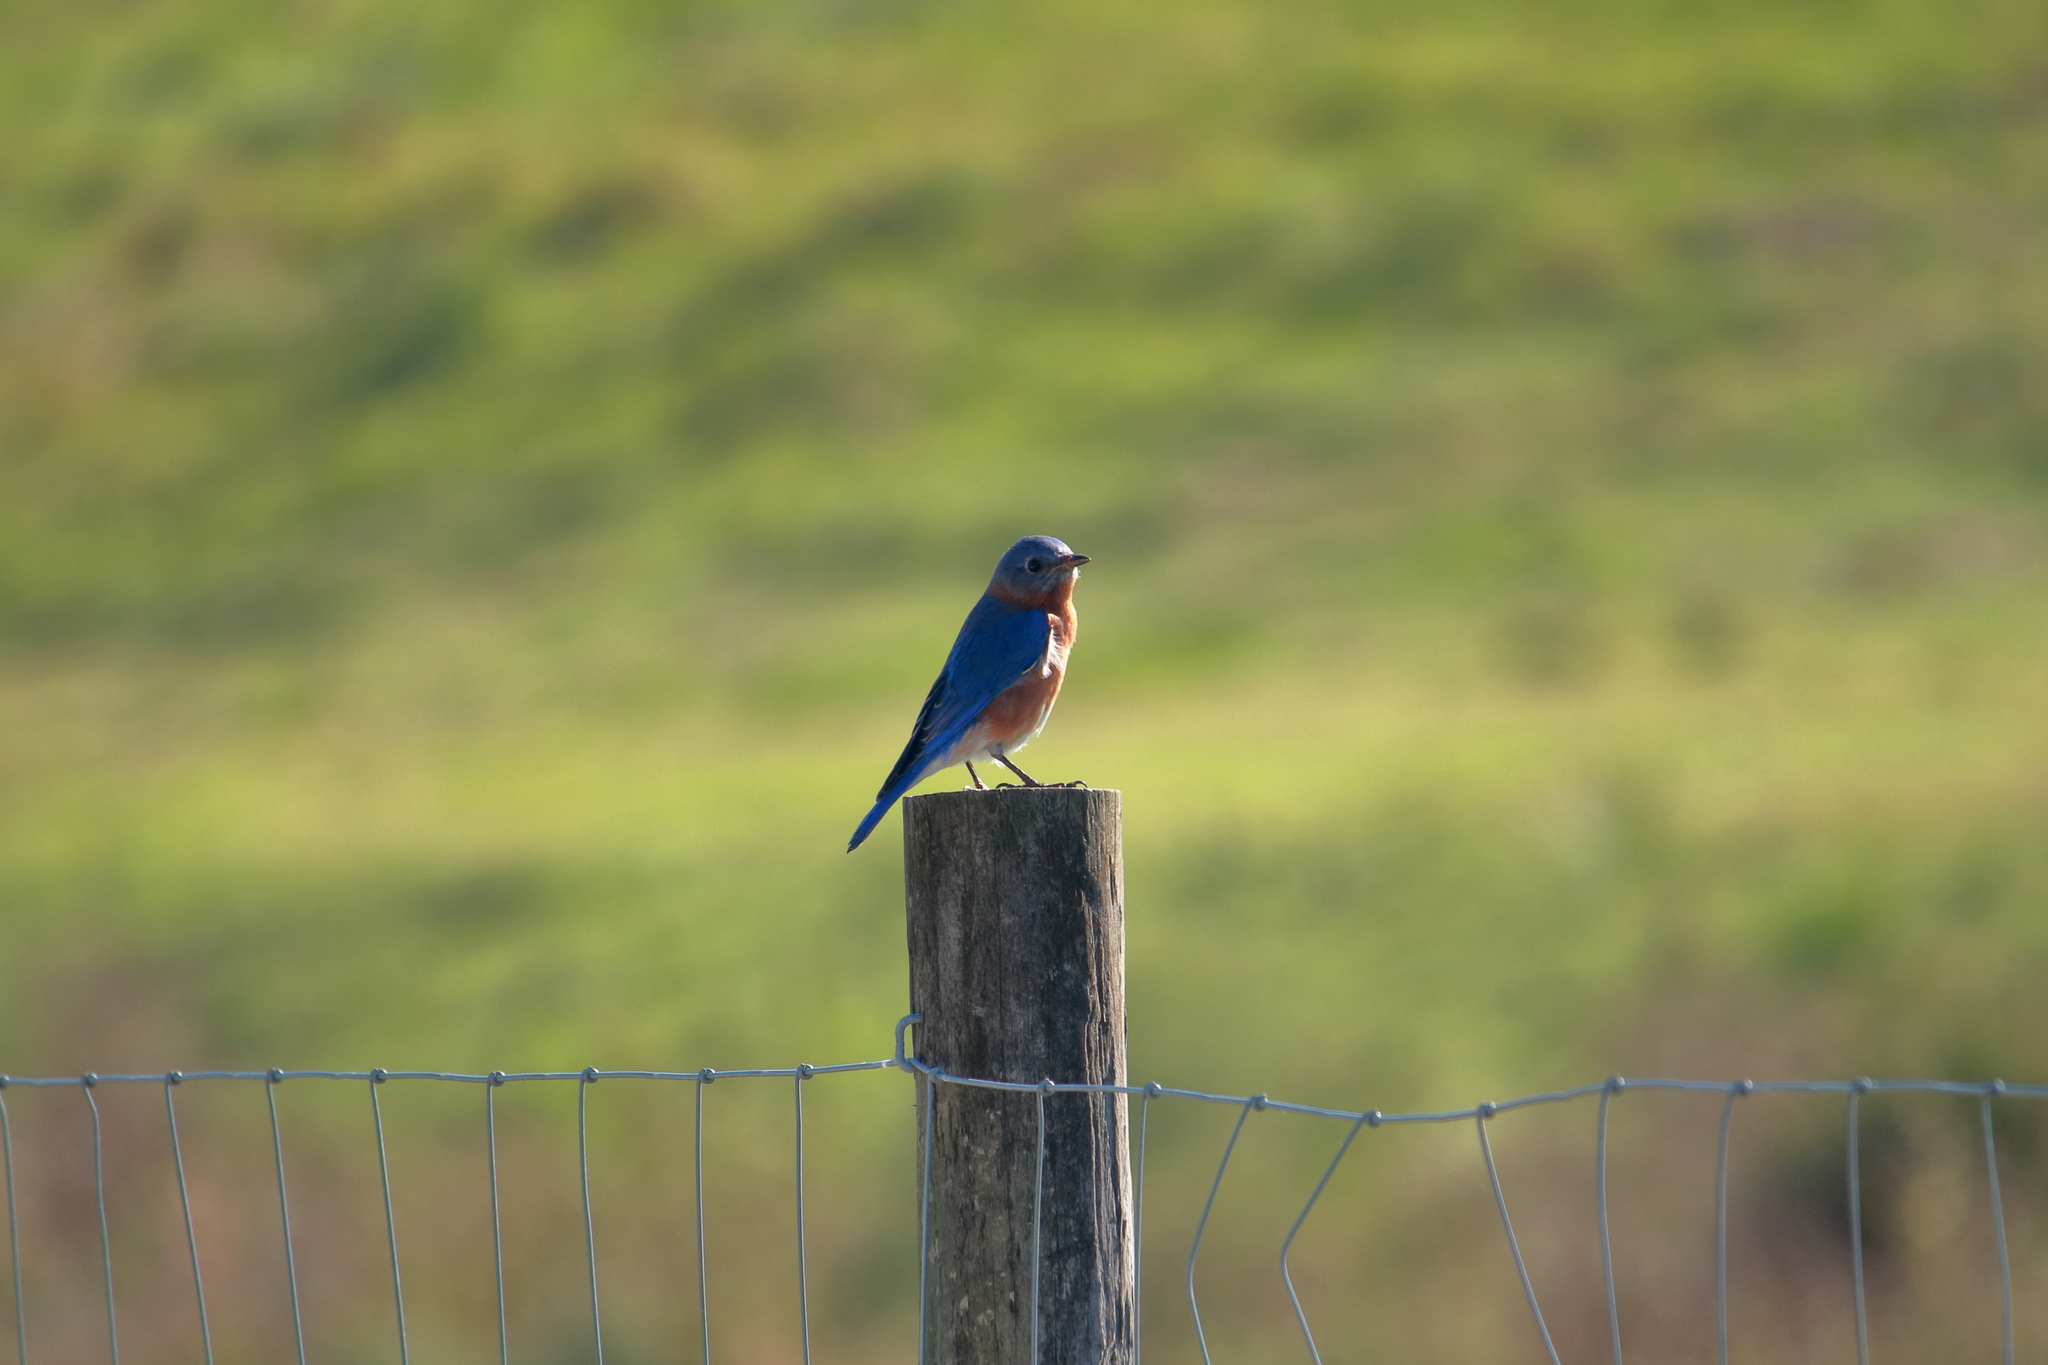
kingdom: Animalia
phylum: Chordata
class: Aves
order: Passeriformes
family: Turdidae
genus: Sialia
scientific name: Sialia sialis
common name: Eastern bluebird
